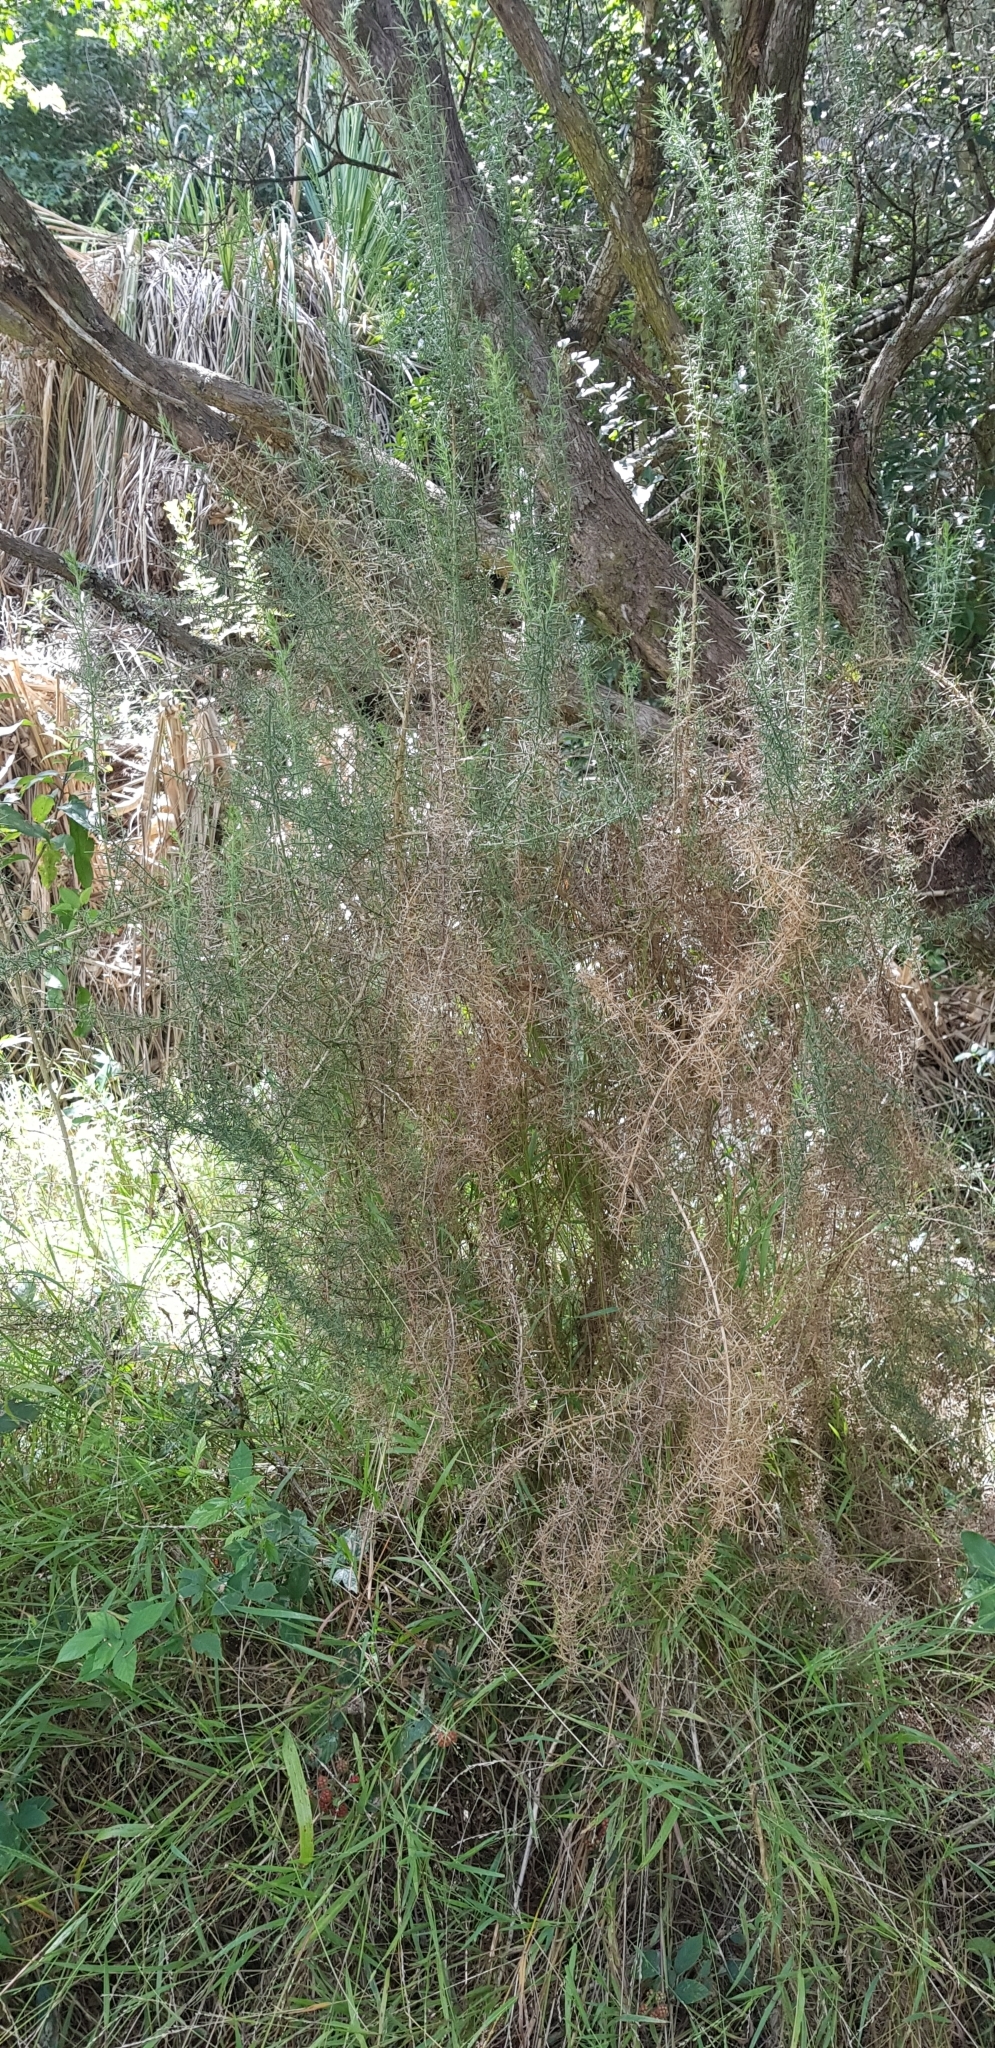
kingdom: Plantae
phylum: Tracheophyta
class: Magnoliopsida
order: Fabales
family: Fabaceae
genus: Ulex
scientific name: Ulex europaeus
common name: Common gorse
